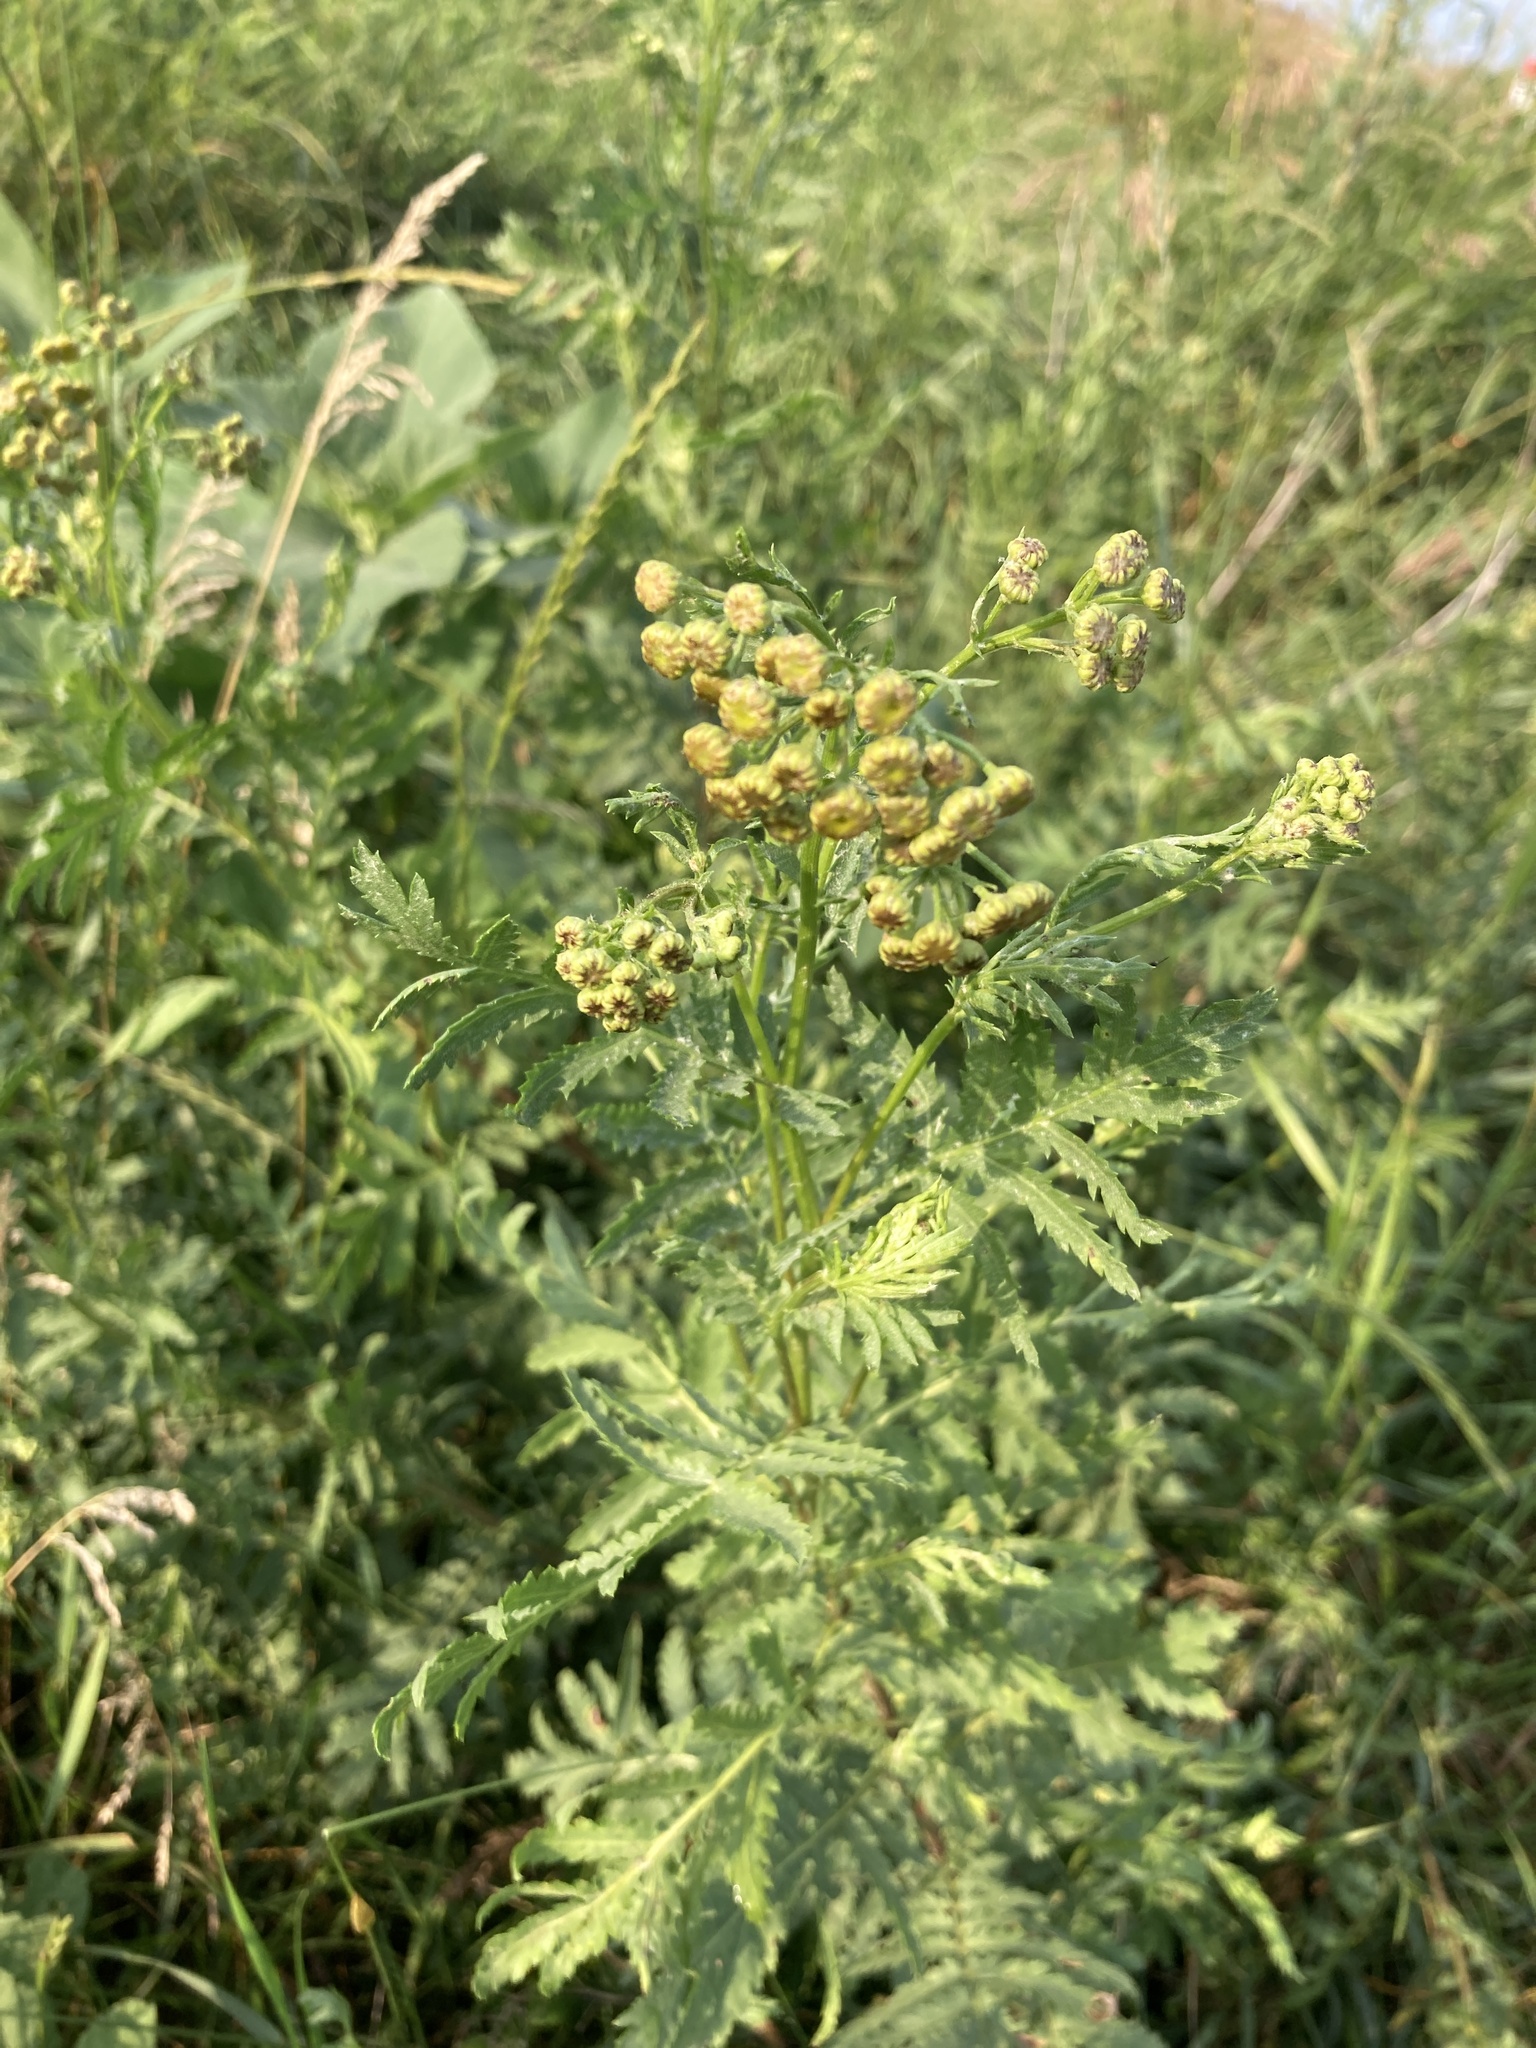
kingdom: Plantae
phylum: Tracheophyta
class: Magnoliopsida
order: Asterales
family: Asteraceae
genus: Tanacetum
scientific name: Tanacetum vulgare
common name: Common tansy
